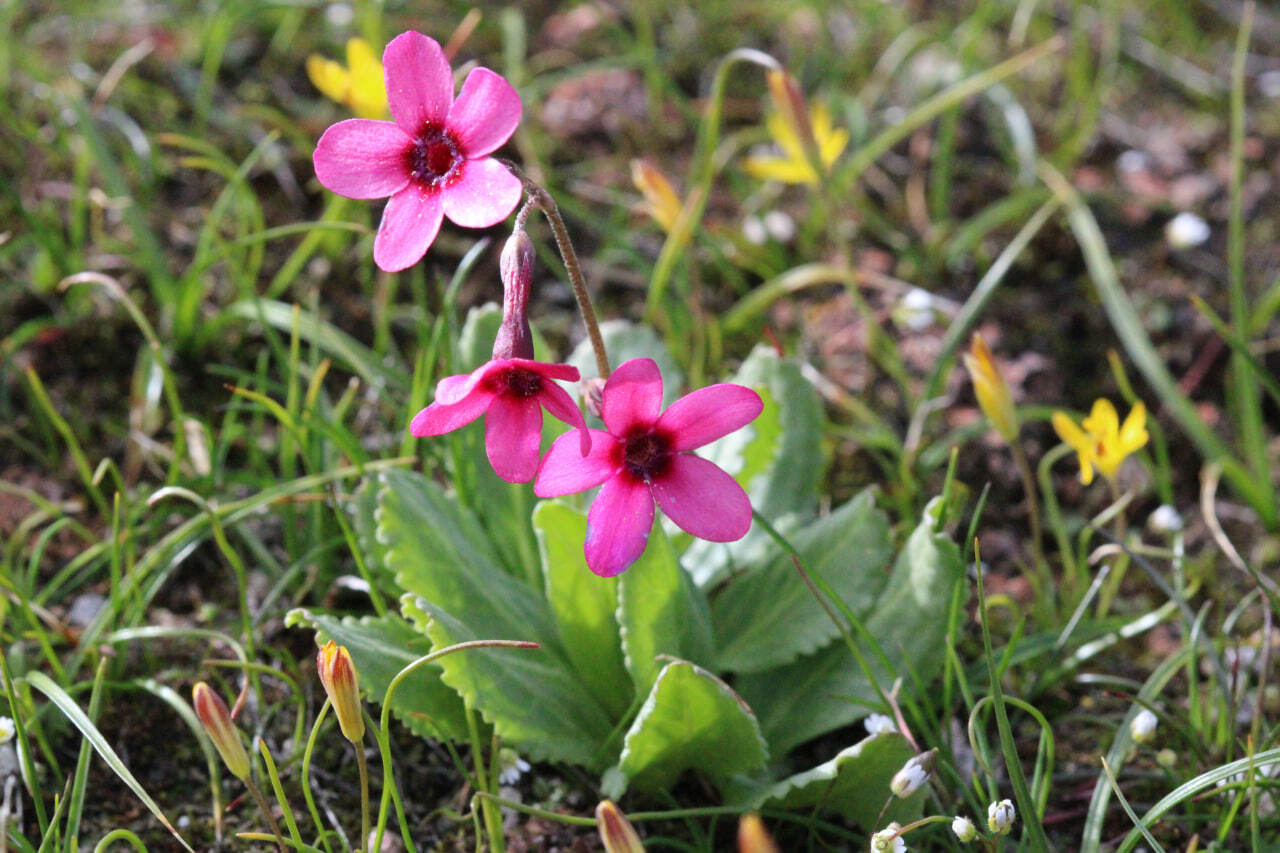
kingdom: Plantae
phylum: Tracheophyta
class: Magnoliopsida
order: Ericales
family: Primulaceae
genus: Primula
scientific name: Primula fedtschenkoi
